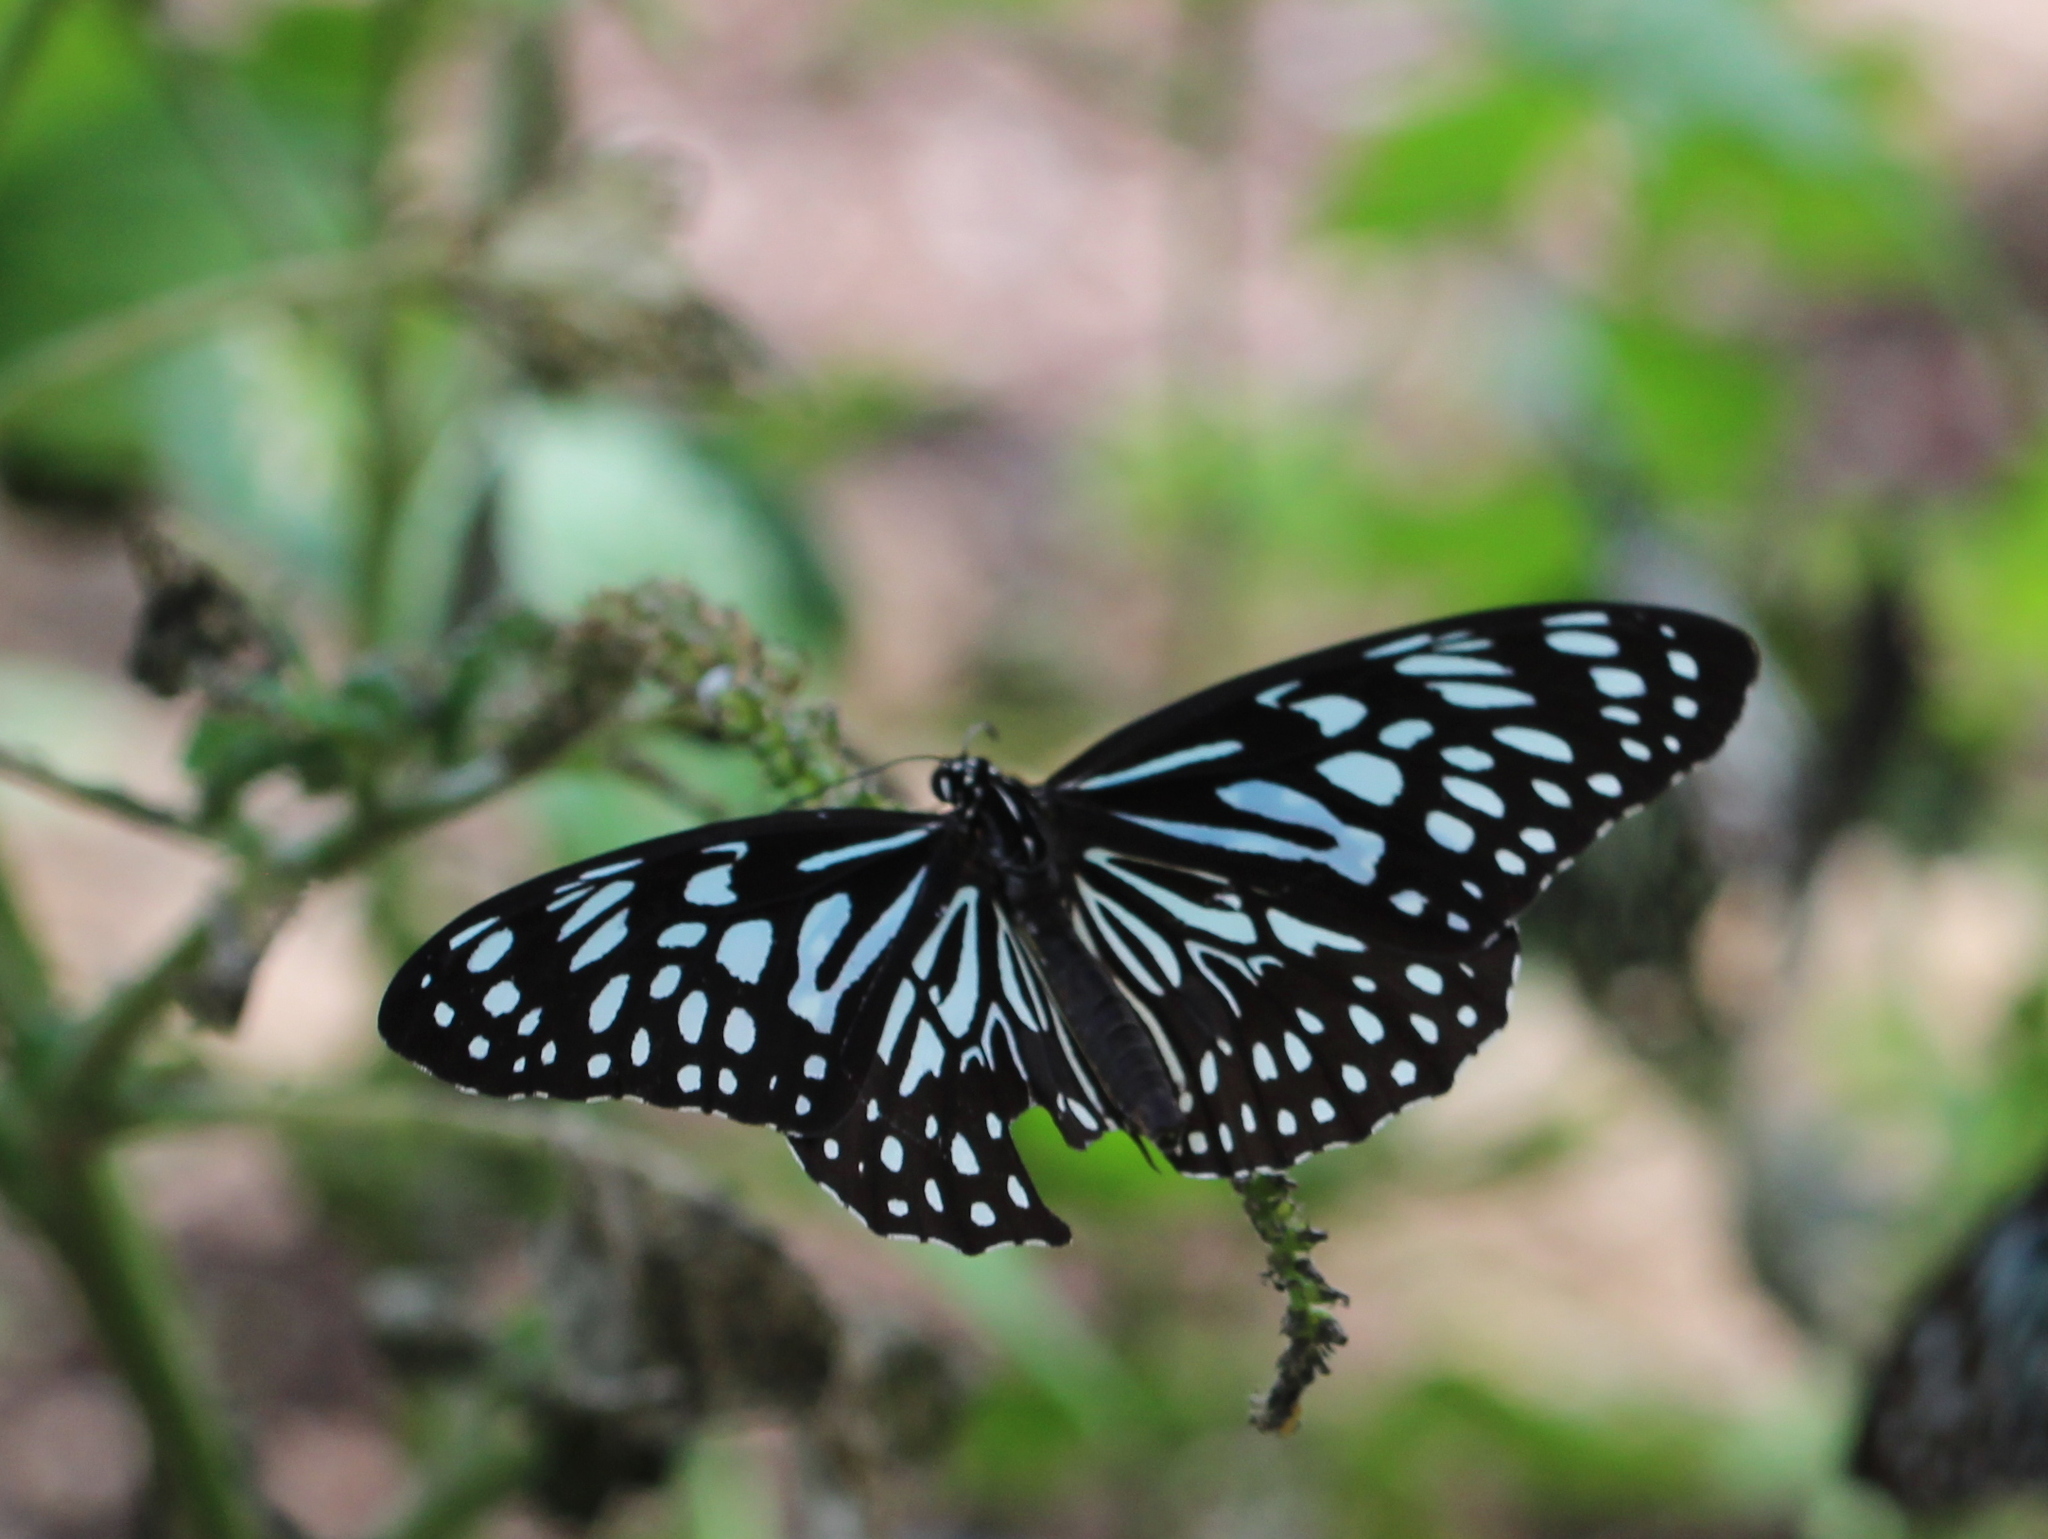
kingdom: Animalia
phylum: Arthropoda
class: Insecta
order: Lepidoptera
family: Nymphalidae
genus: Tirumala
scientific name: Tirumala septentrionis
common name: Dark blue tiger butterfly
